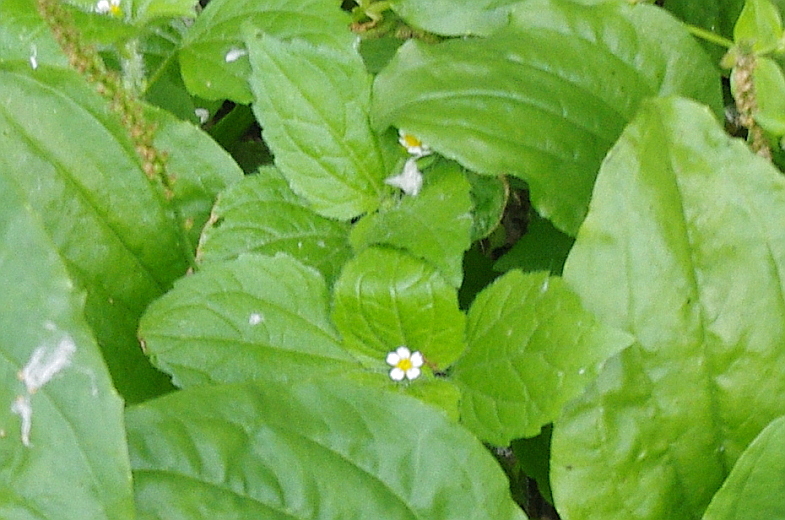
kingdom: Plantae
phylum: Tracheophyta
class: Magnoliopsida
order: Asterales
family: Asteraceae
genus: Galinsoga
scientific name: Galinsoga quadriradiata
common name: Shaggy soldier
